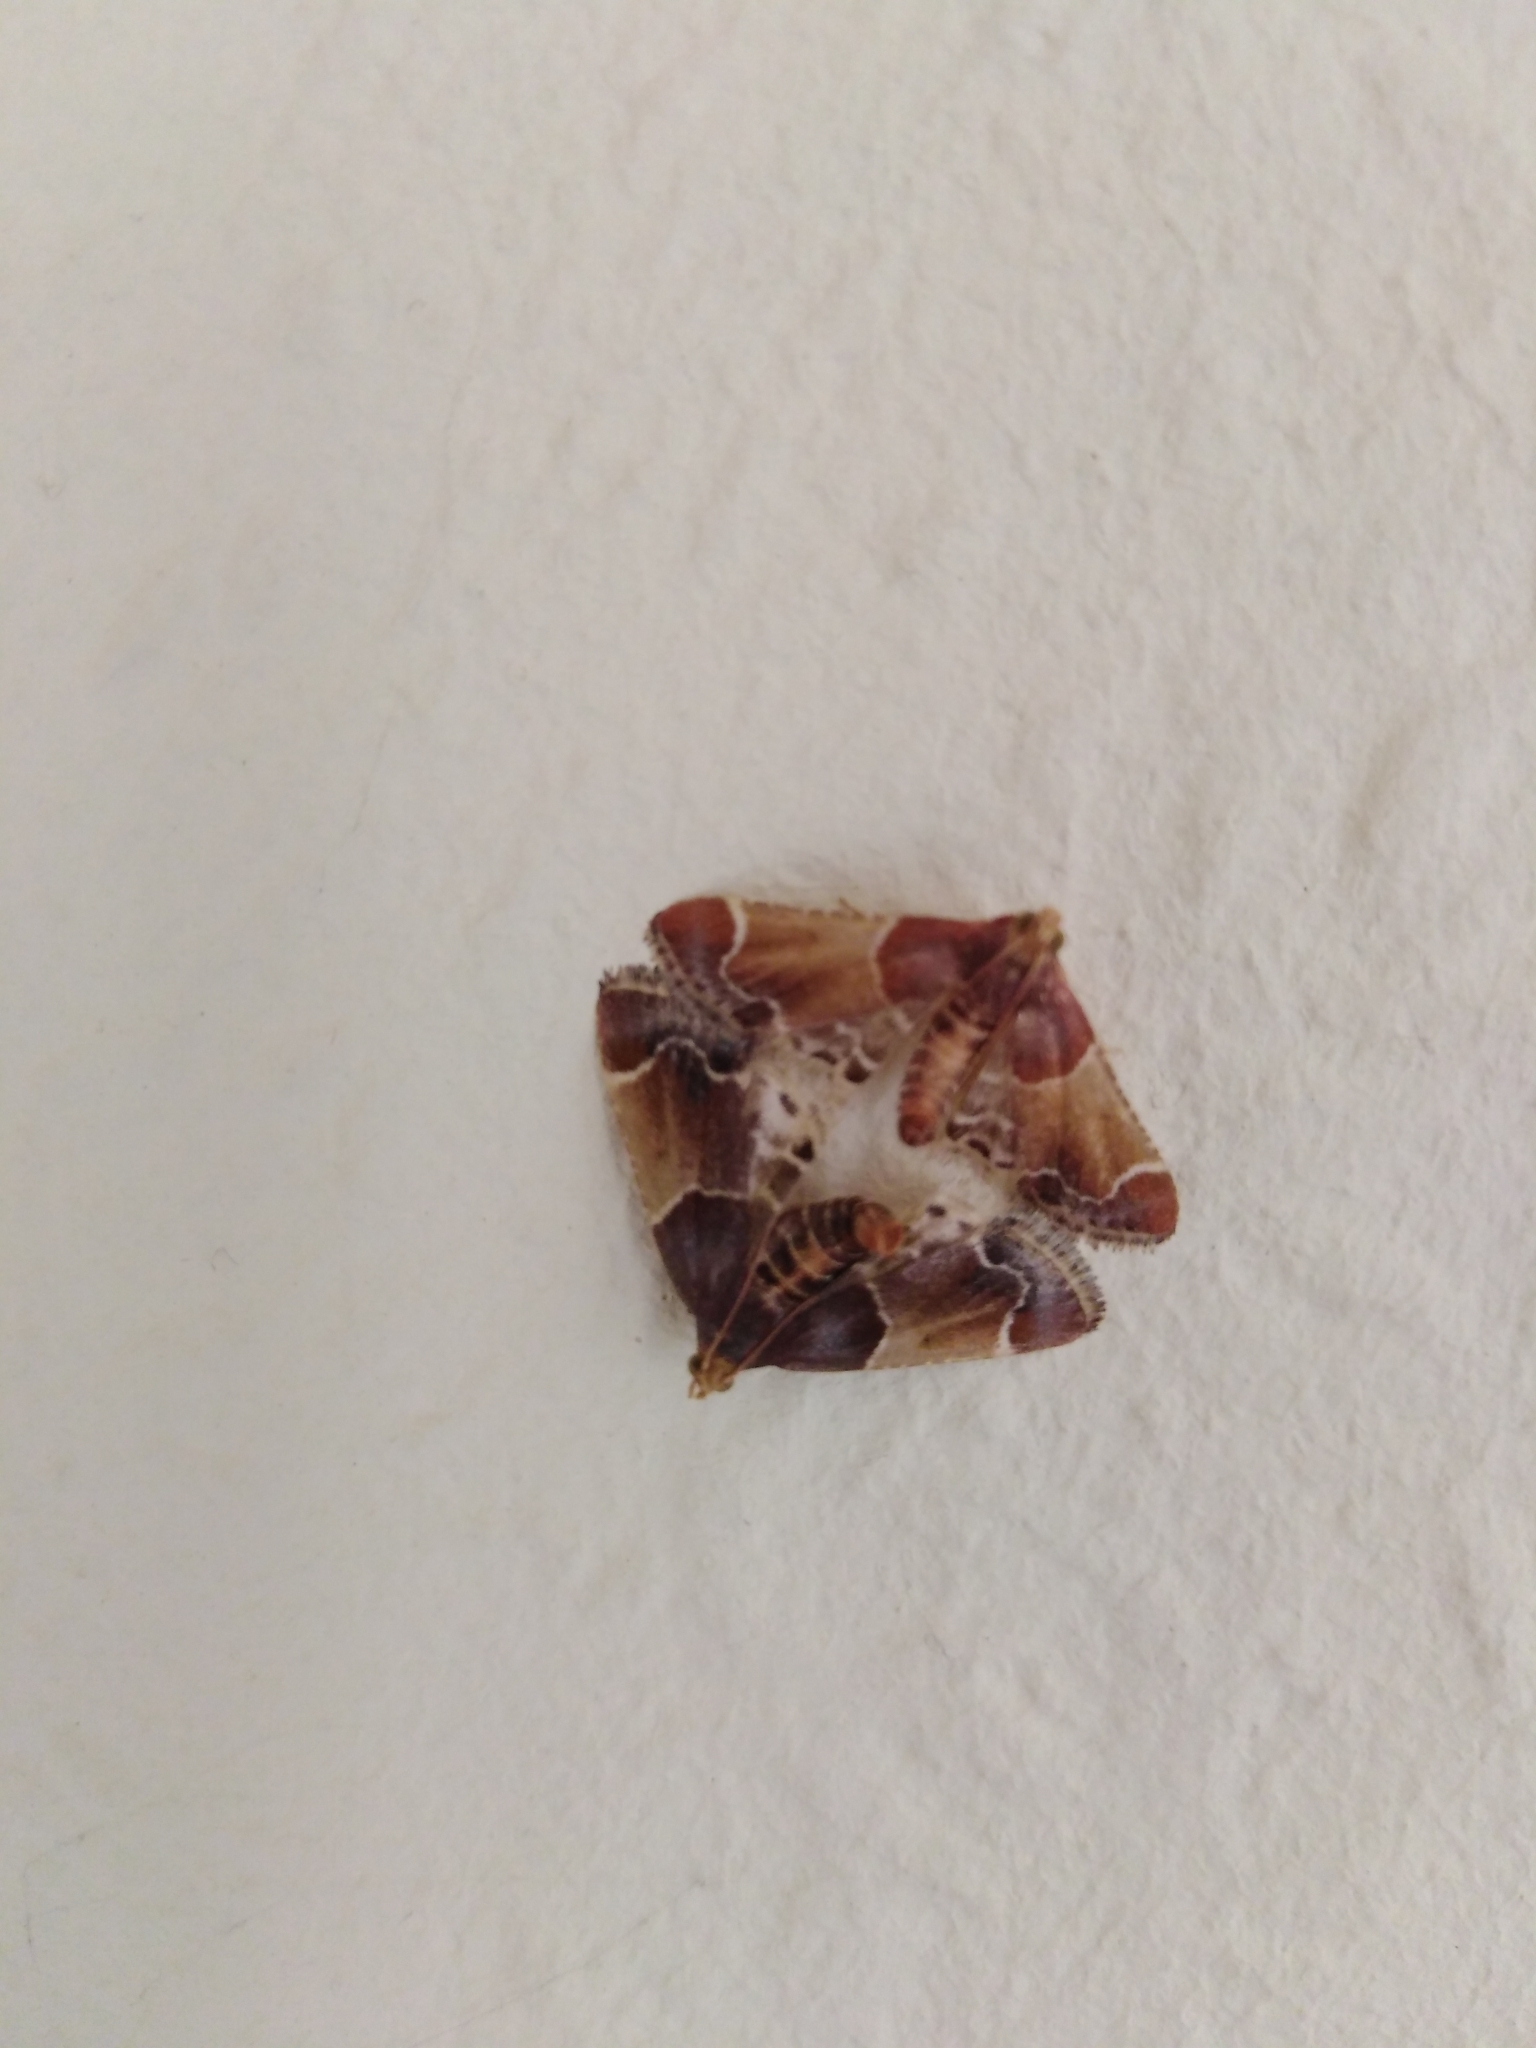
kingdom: Animalia
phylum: Arthropoda
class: Insecta
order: Lepidoptera
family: Pyralidae
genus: Pyralis
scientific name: Pyralis farinalis
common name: Meal moth
